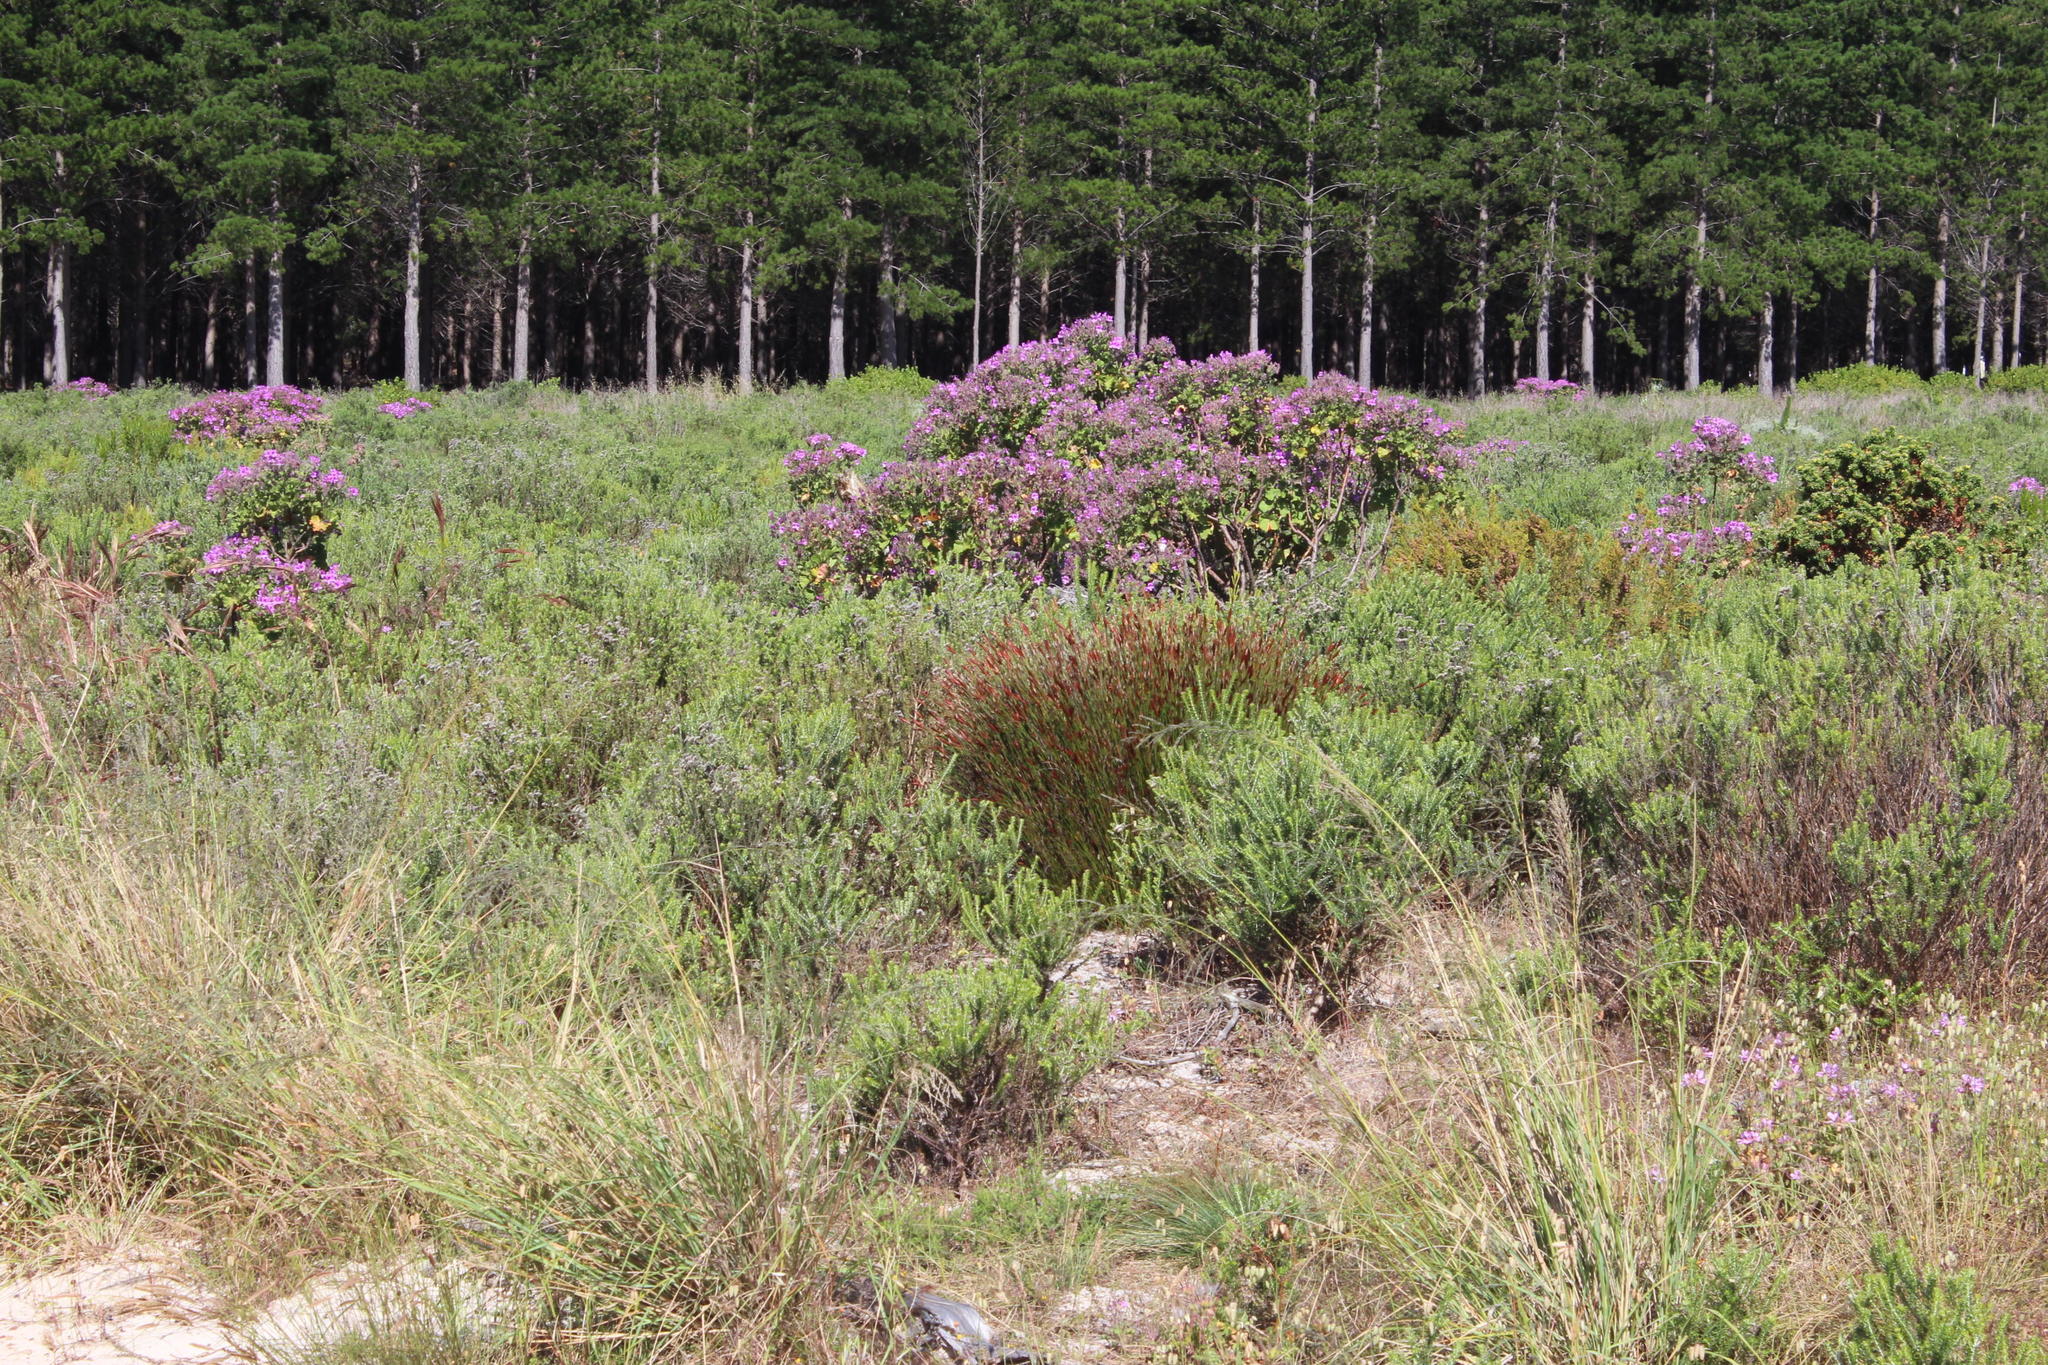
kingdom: Plantae
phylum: Tracheophyta
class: Liliopsida
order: Poales
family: Restionaceae
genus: Staberoha
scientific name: Staberoha distachyos
